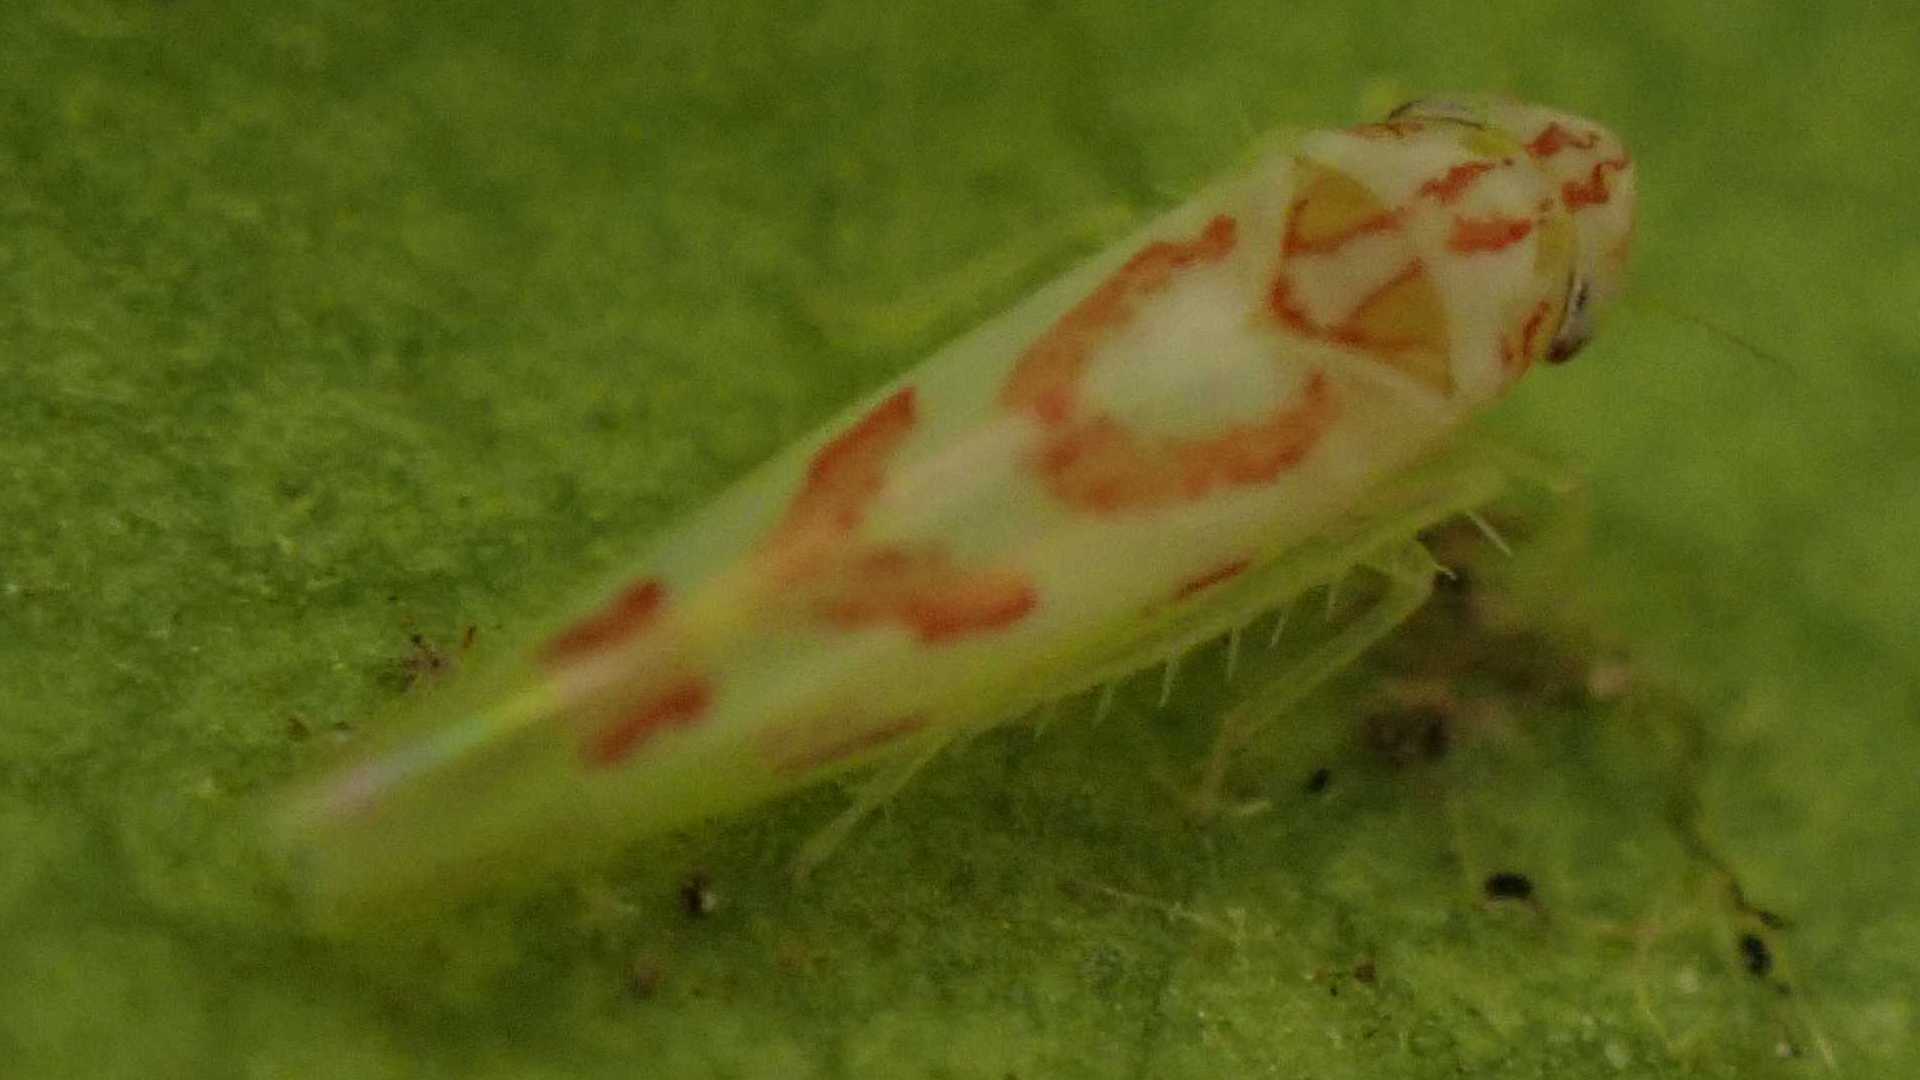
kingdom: Animalia
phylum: Arthropoda
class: Insecta
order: Hemiptera
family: Cicadellidae
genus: Zygina
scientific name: Zygina
